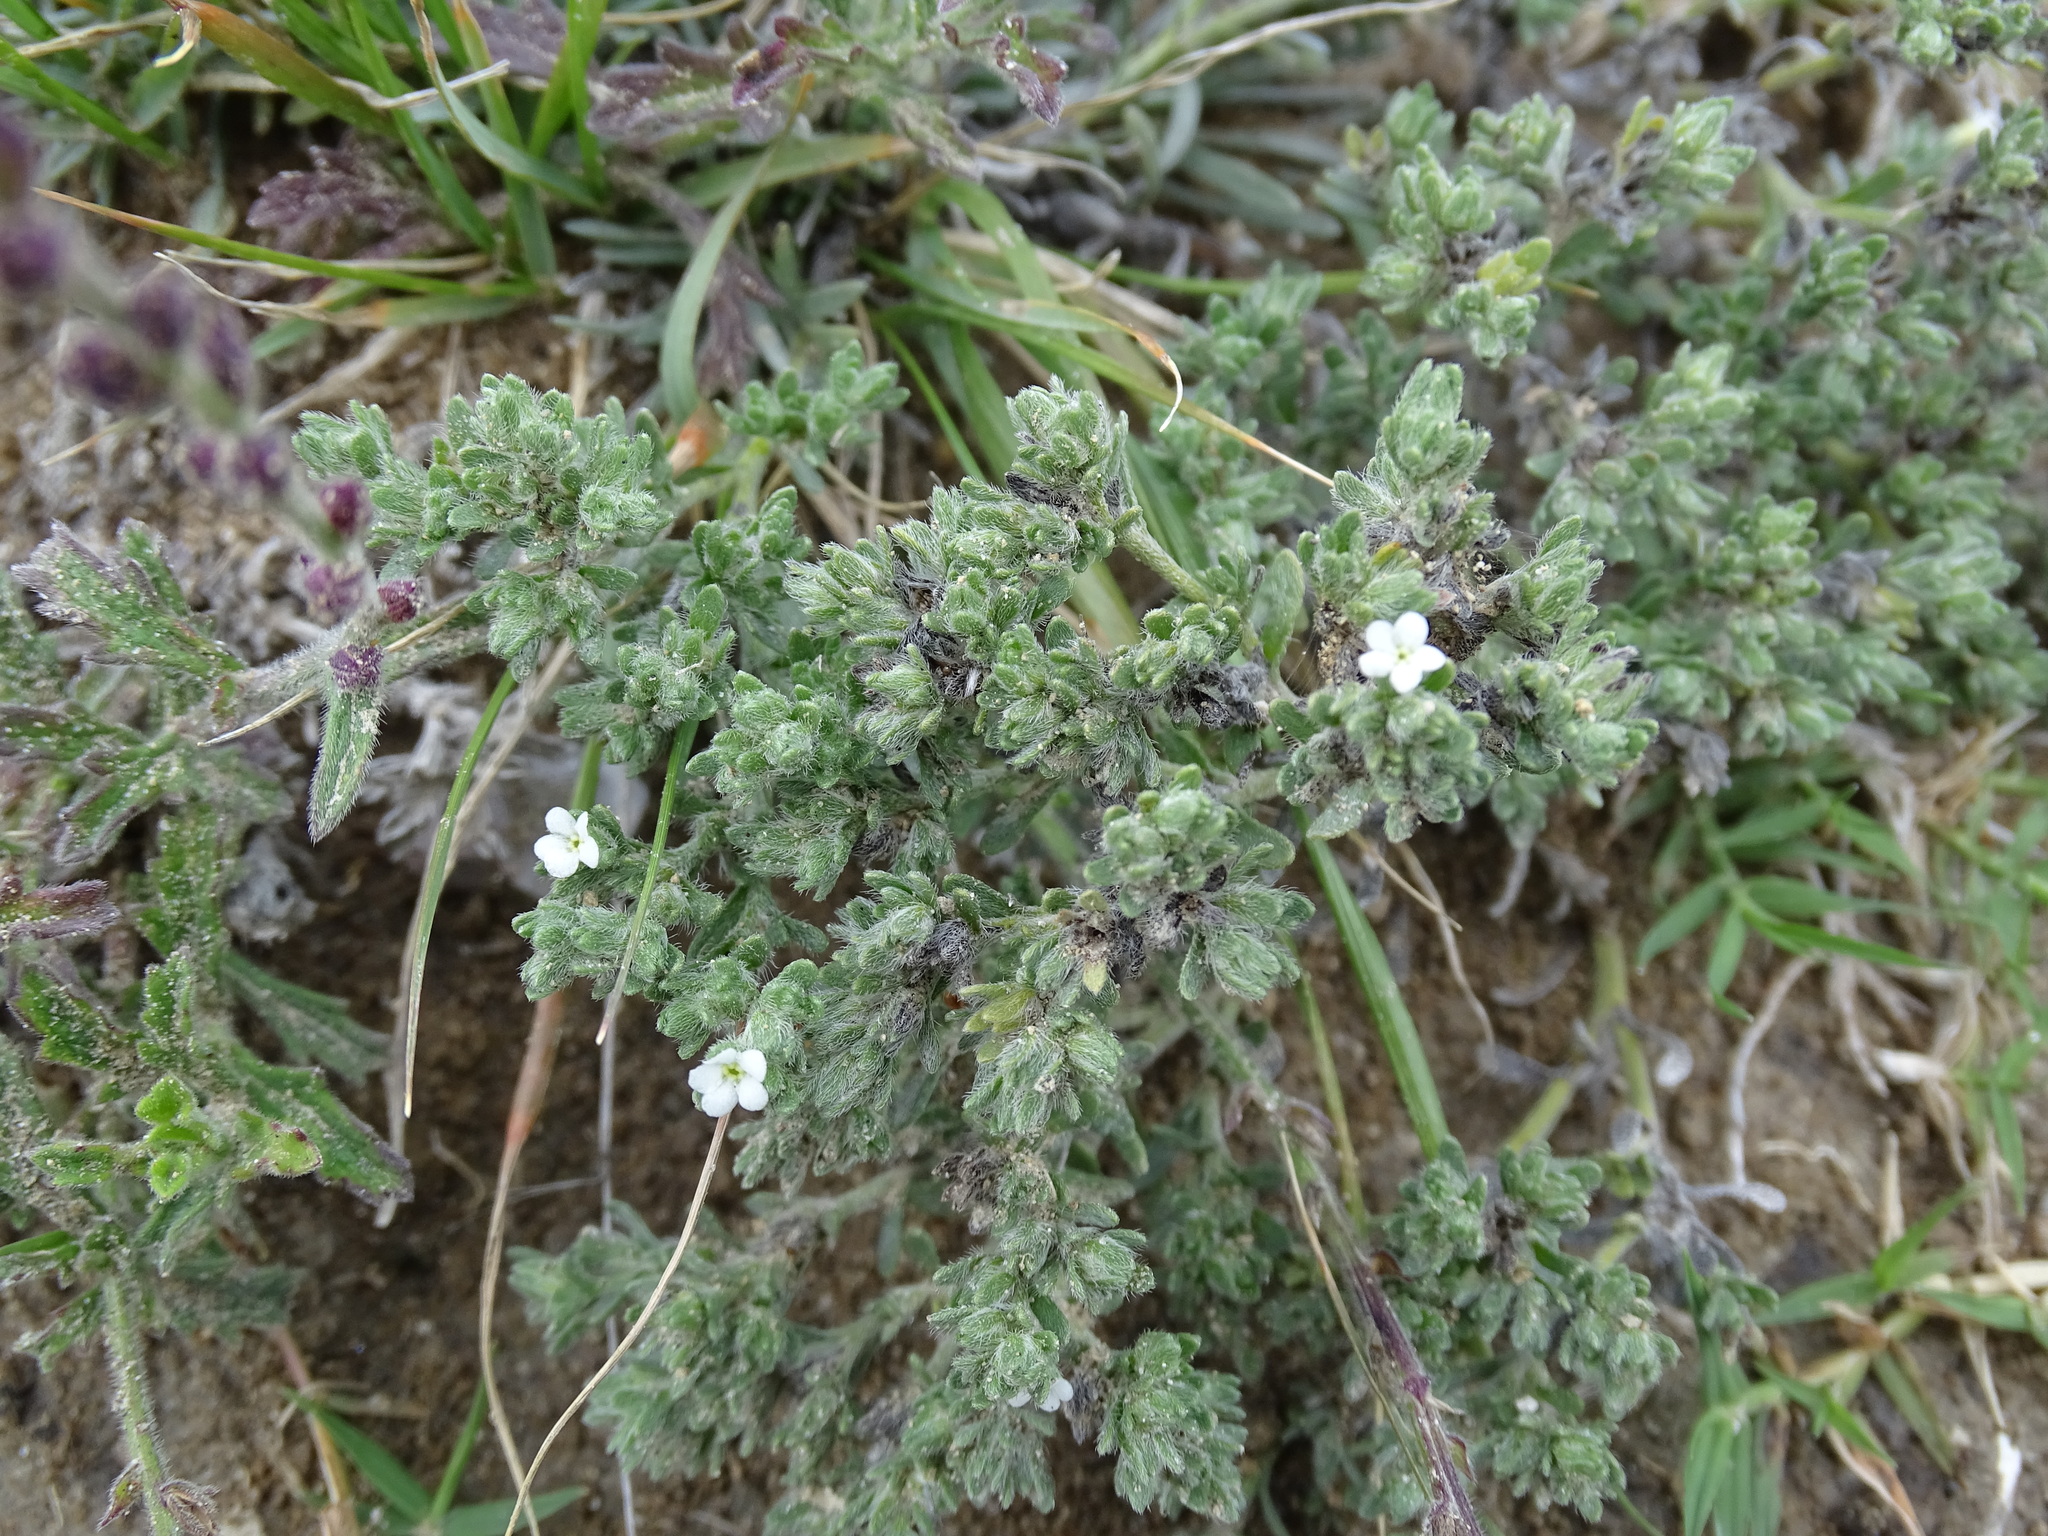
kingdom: Plantae
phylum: Tracheophyta
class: Magnoliopsida
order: Boraginales
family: Boraginaceae
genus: Antiphytum
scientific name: Antiphytum heliotropioides
